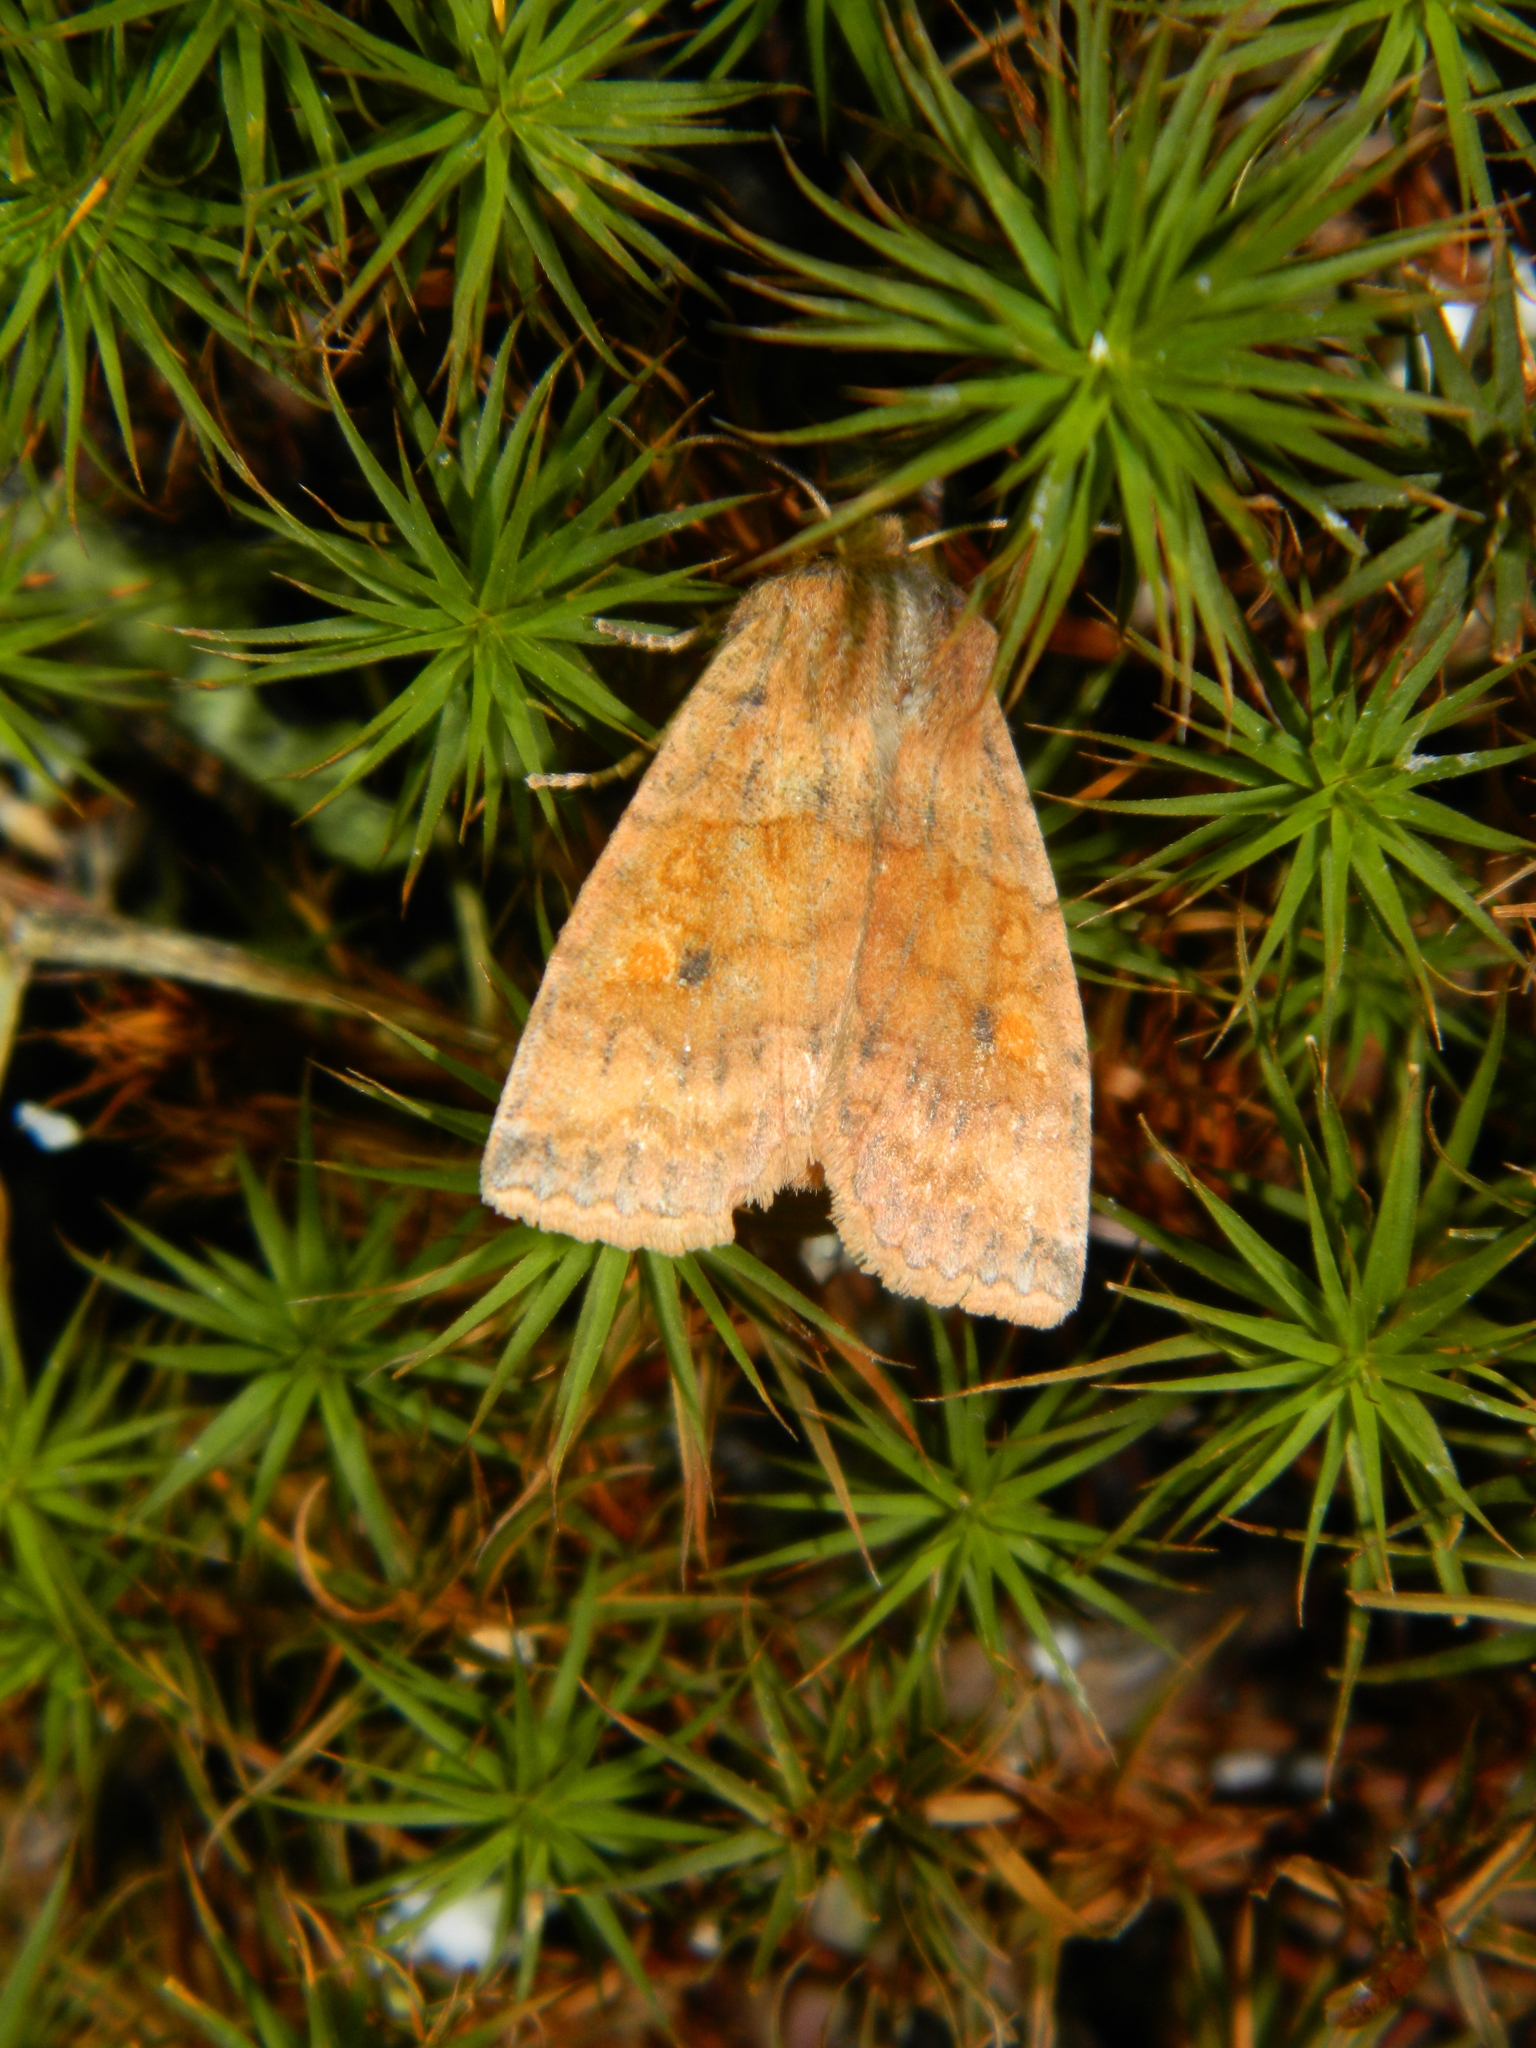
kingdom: Animalia
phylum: Arthropoda
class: Insecta
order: Lepidoptera
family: Noctuidae
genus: Eupsilia
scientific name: Eupsilia tristigmata
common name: Three-spotted sallow
